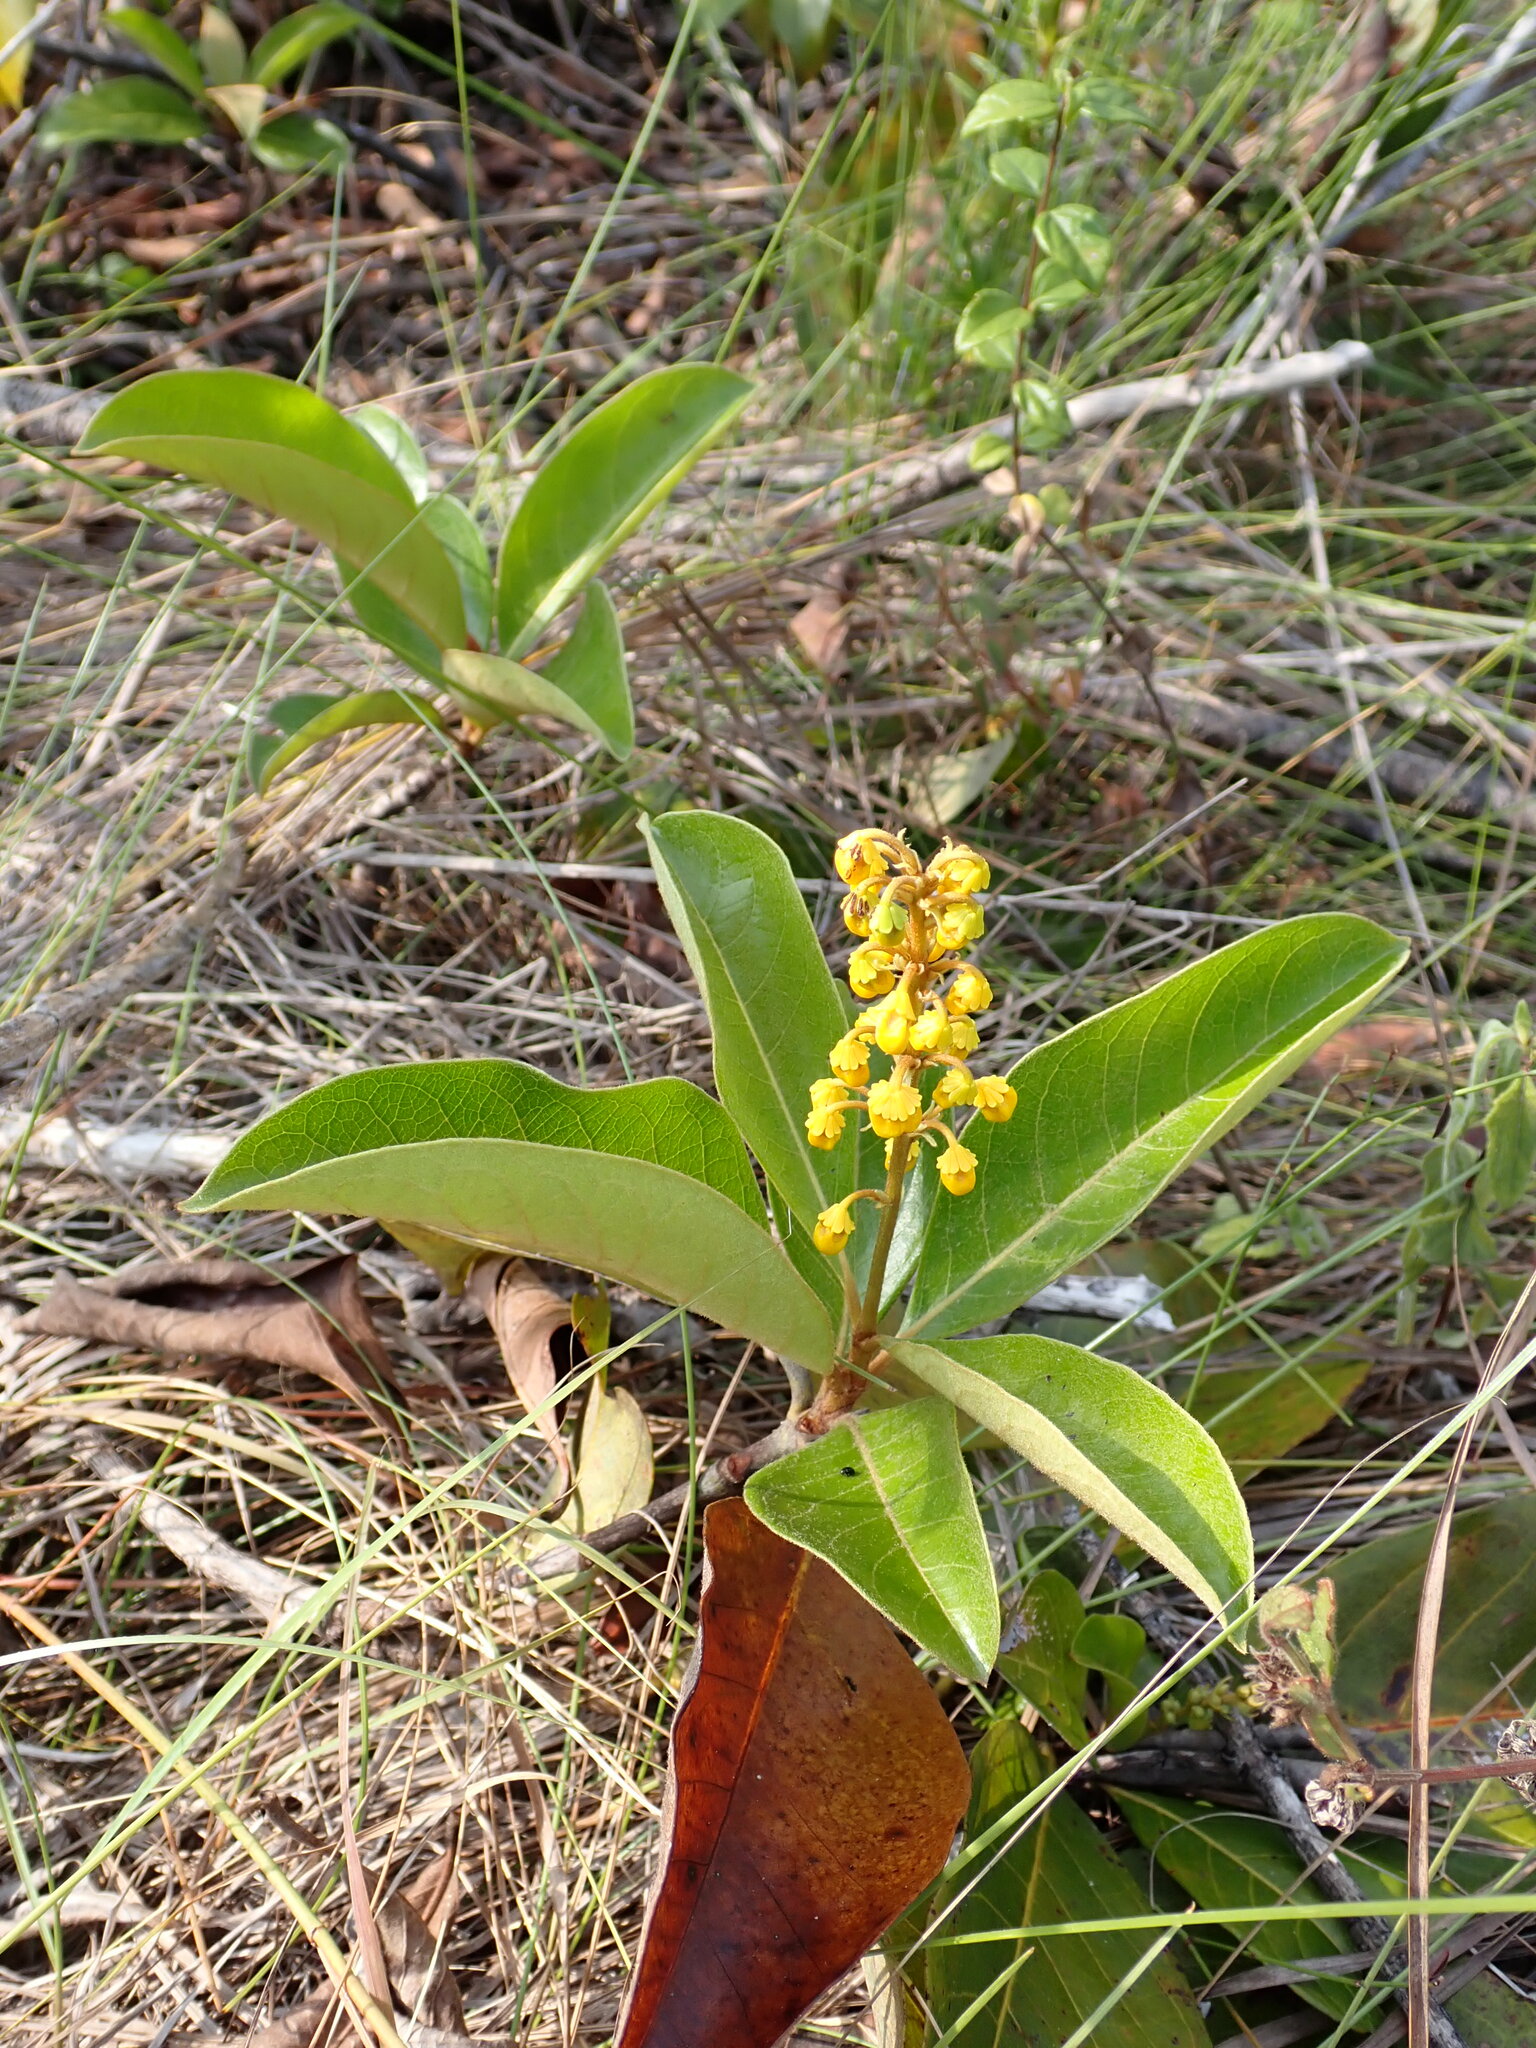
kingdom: Plantae
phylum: Tracheophyta
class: Magnoliopsida
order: Malpighiales
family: Malpighiaceae
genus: Byrsonima
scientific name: Byrsonima crassifolia
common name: Golden spoon
